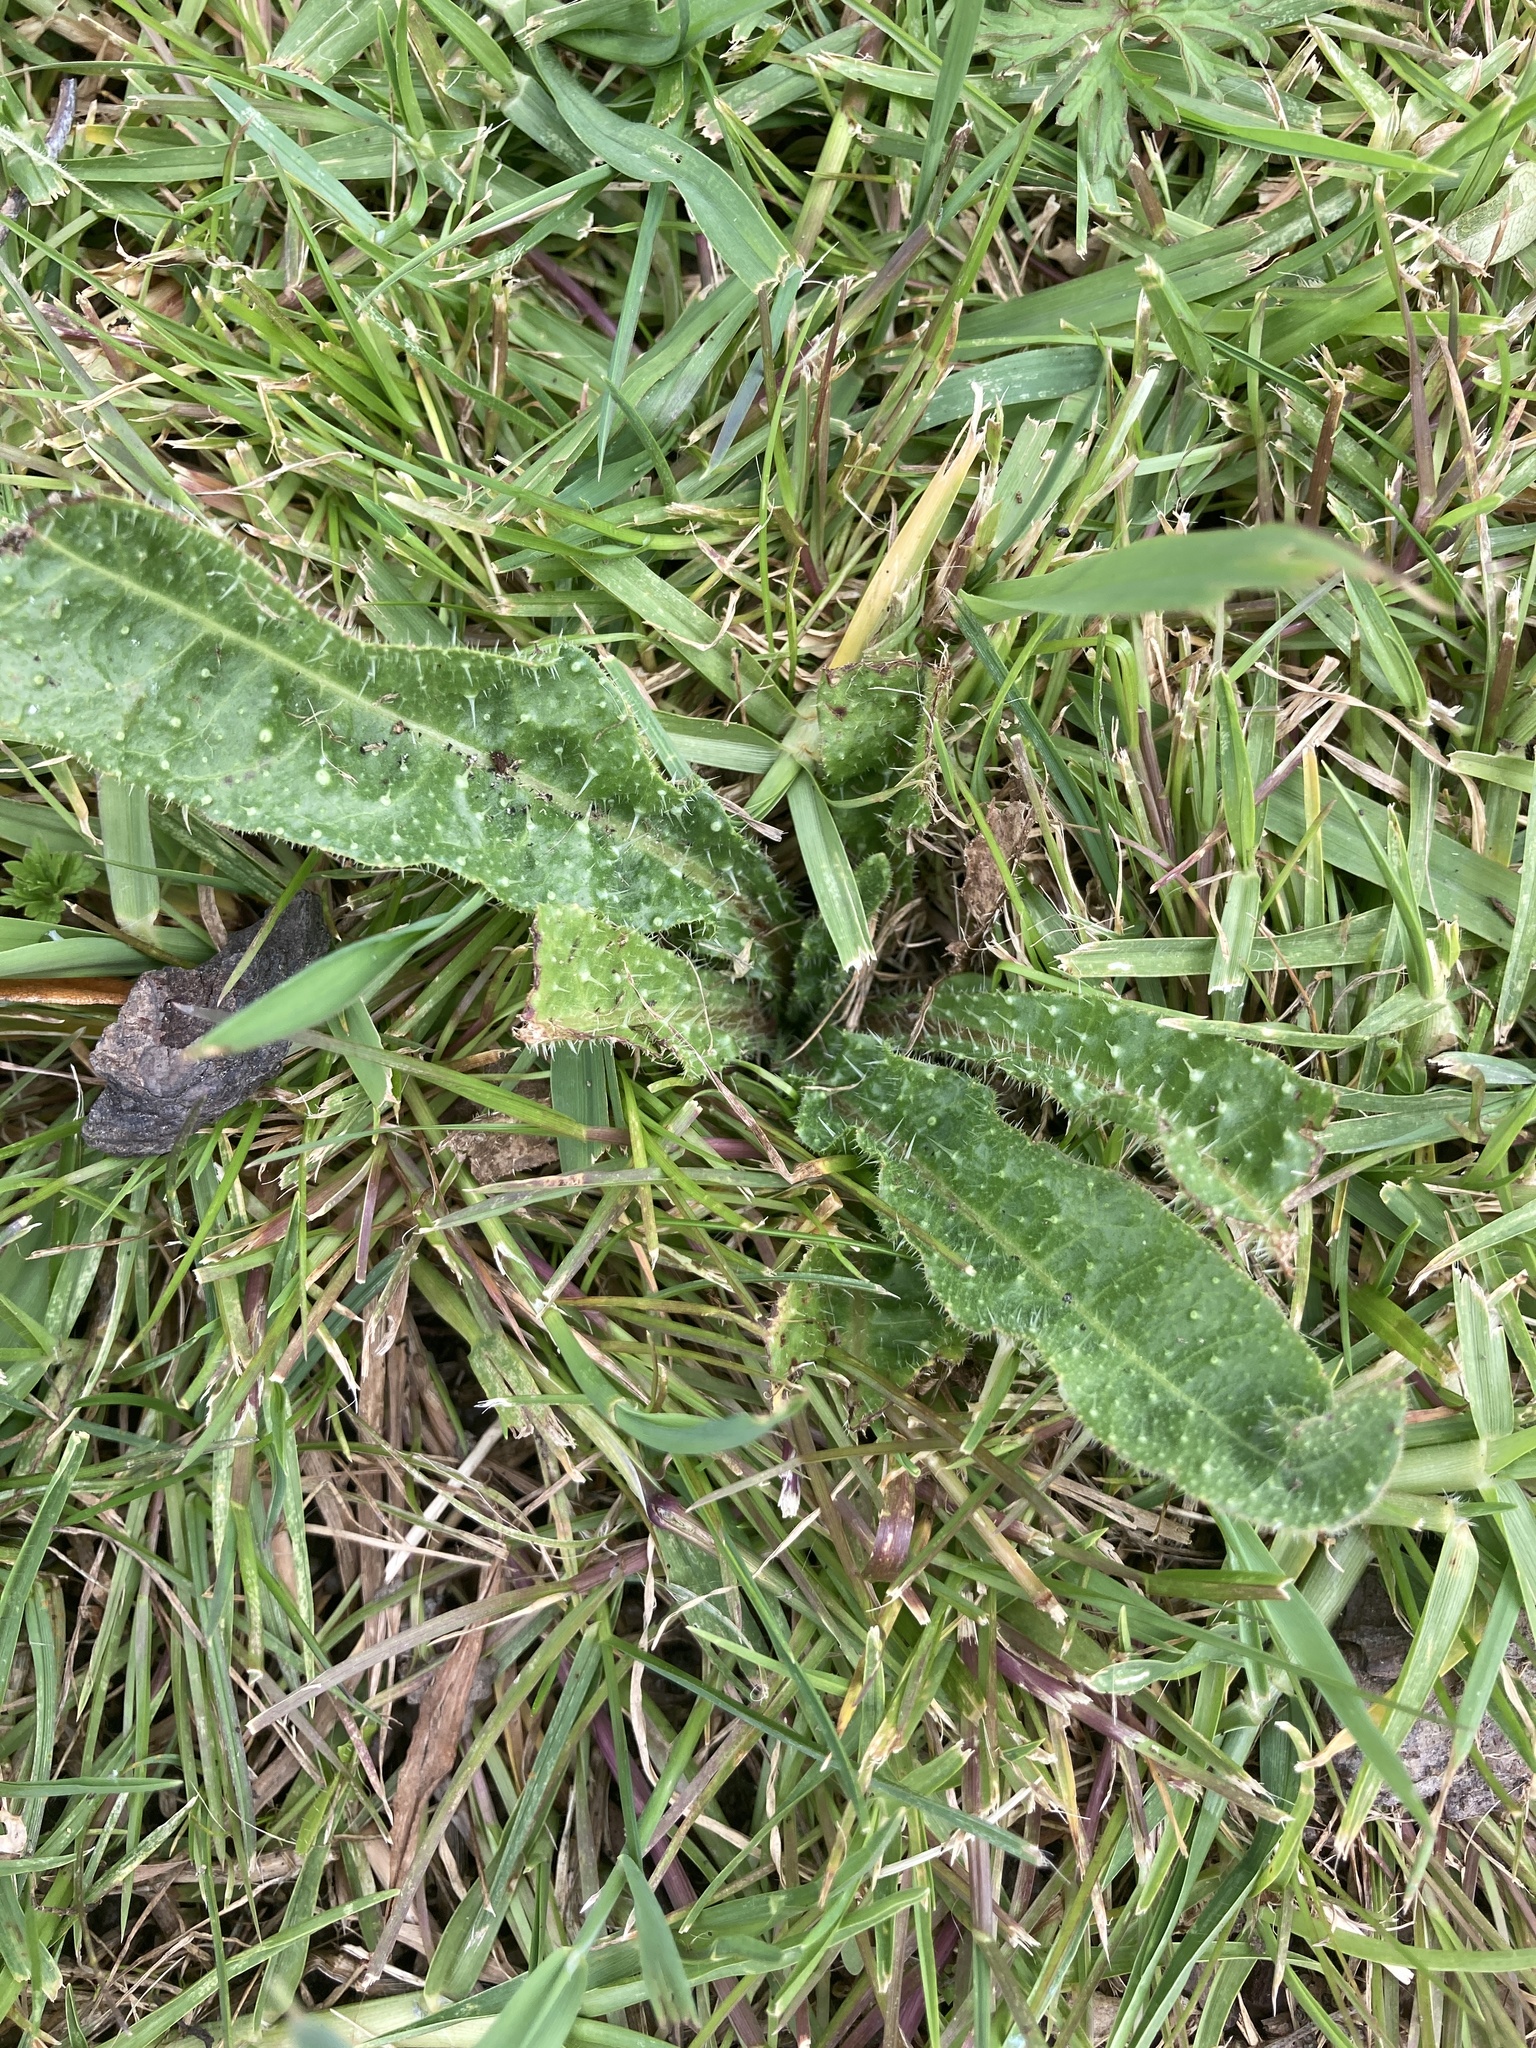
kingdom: Plantae
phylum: Tracheophyta
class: Magnoliopsida
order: Asterales
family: Asteraceae
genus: Helminthotheca
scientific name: Helminthotheca echioides
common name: Ox-tongue
